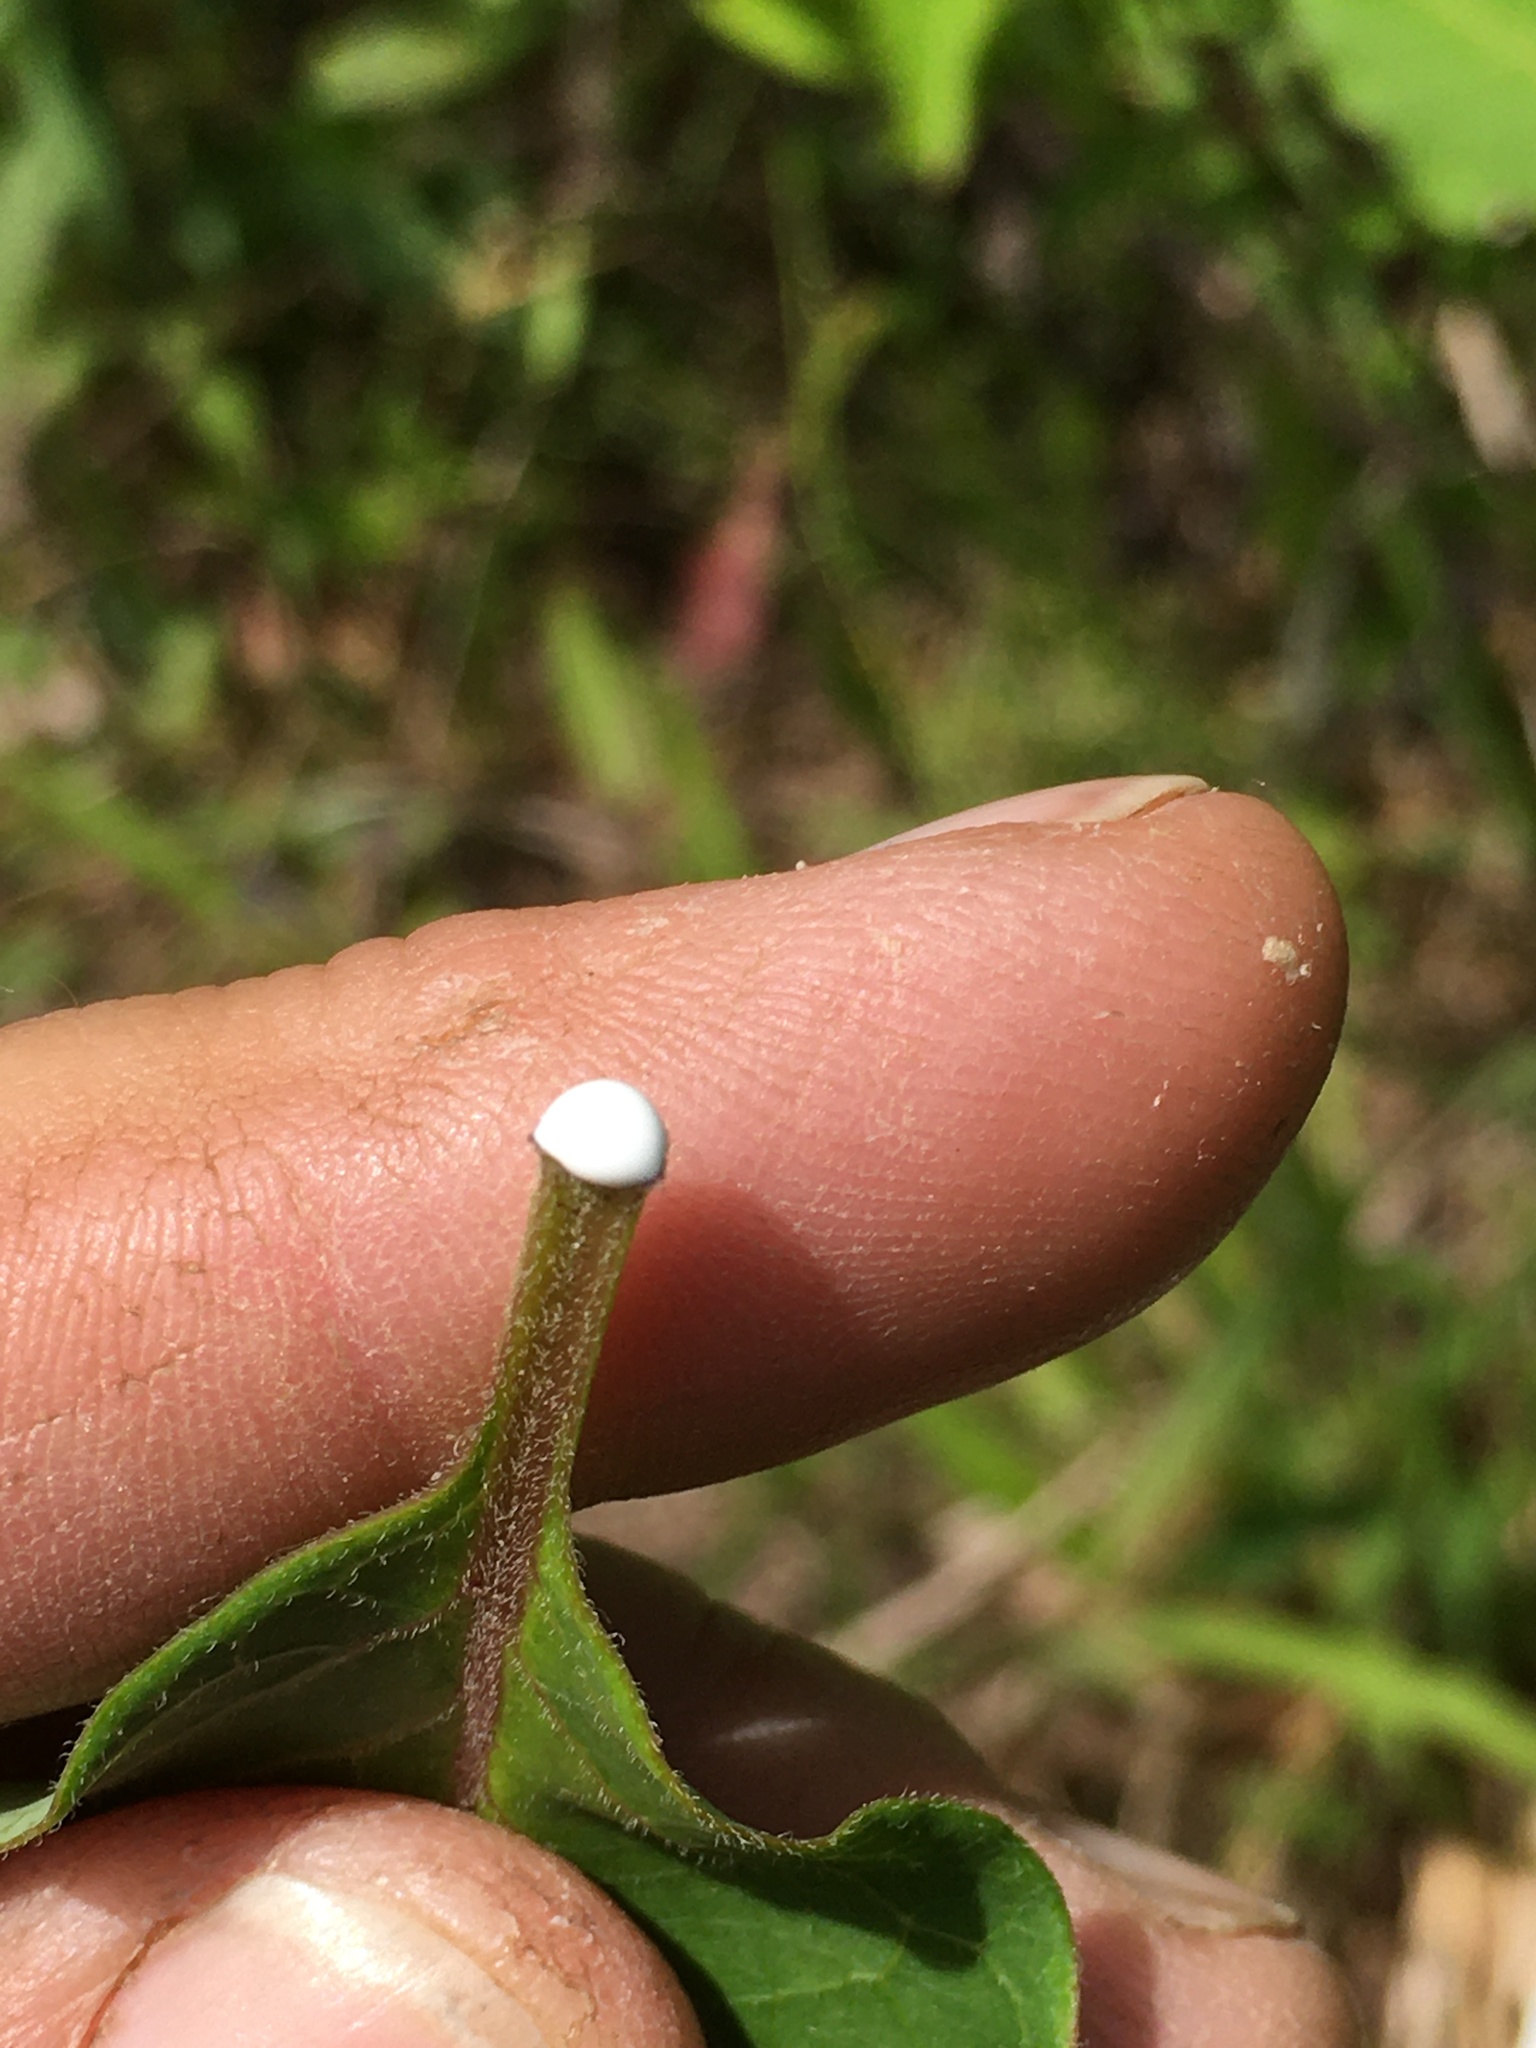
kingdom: Plantae
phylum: Tracheophyta
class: Magnoliopsida
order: Gentianales
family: Apocynaceae
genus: Asclepias
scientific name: Asclepias variegata
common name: Variegated milkweed
